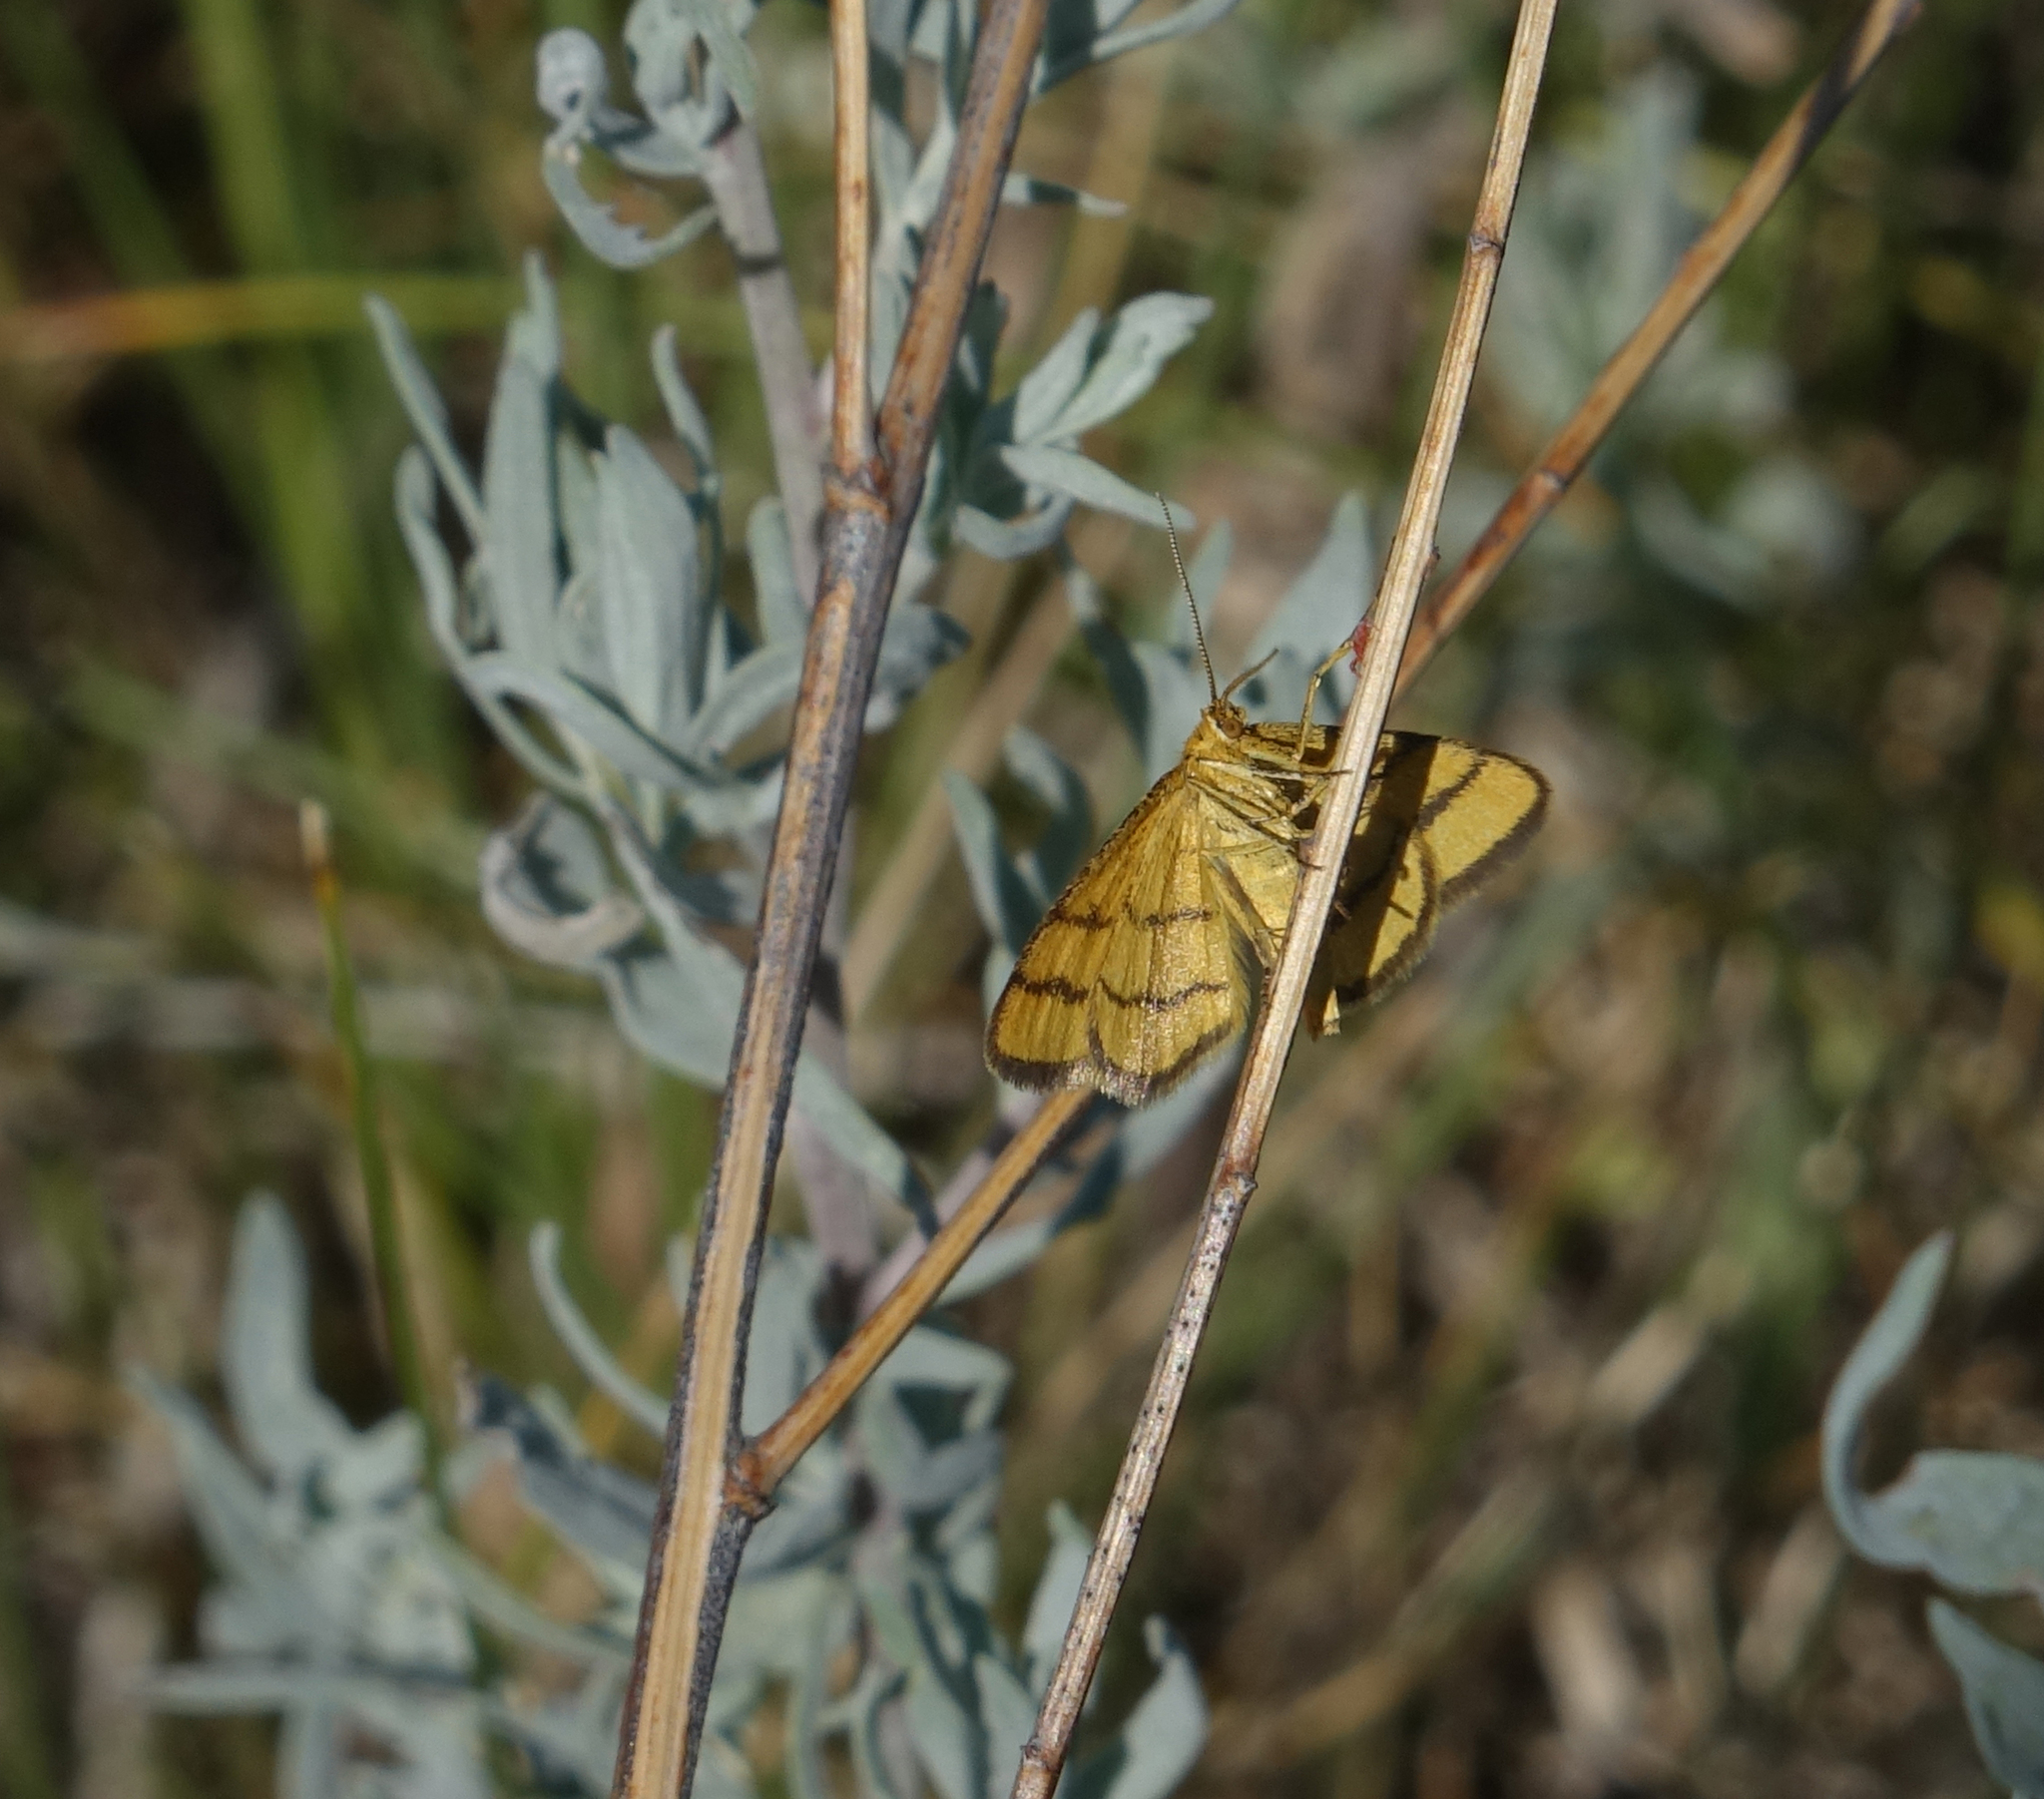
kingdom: Animalia
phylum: Arthropoda
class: Insecta
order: Lepidoptera
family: Geometridae
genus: Idaea
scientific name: Idaea aureolaria
